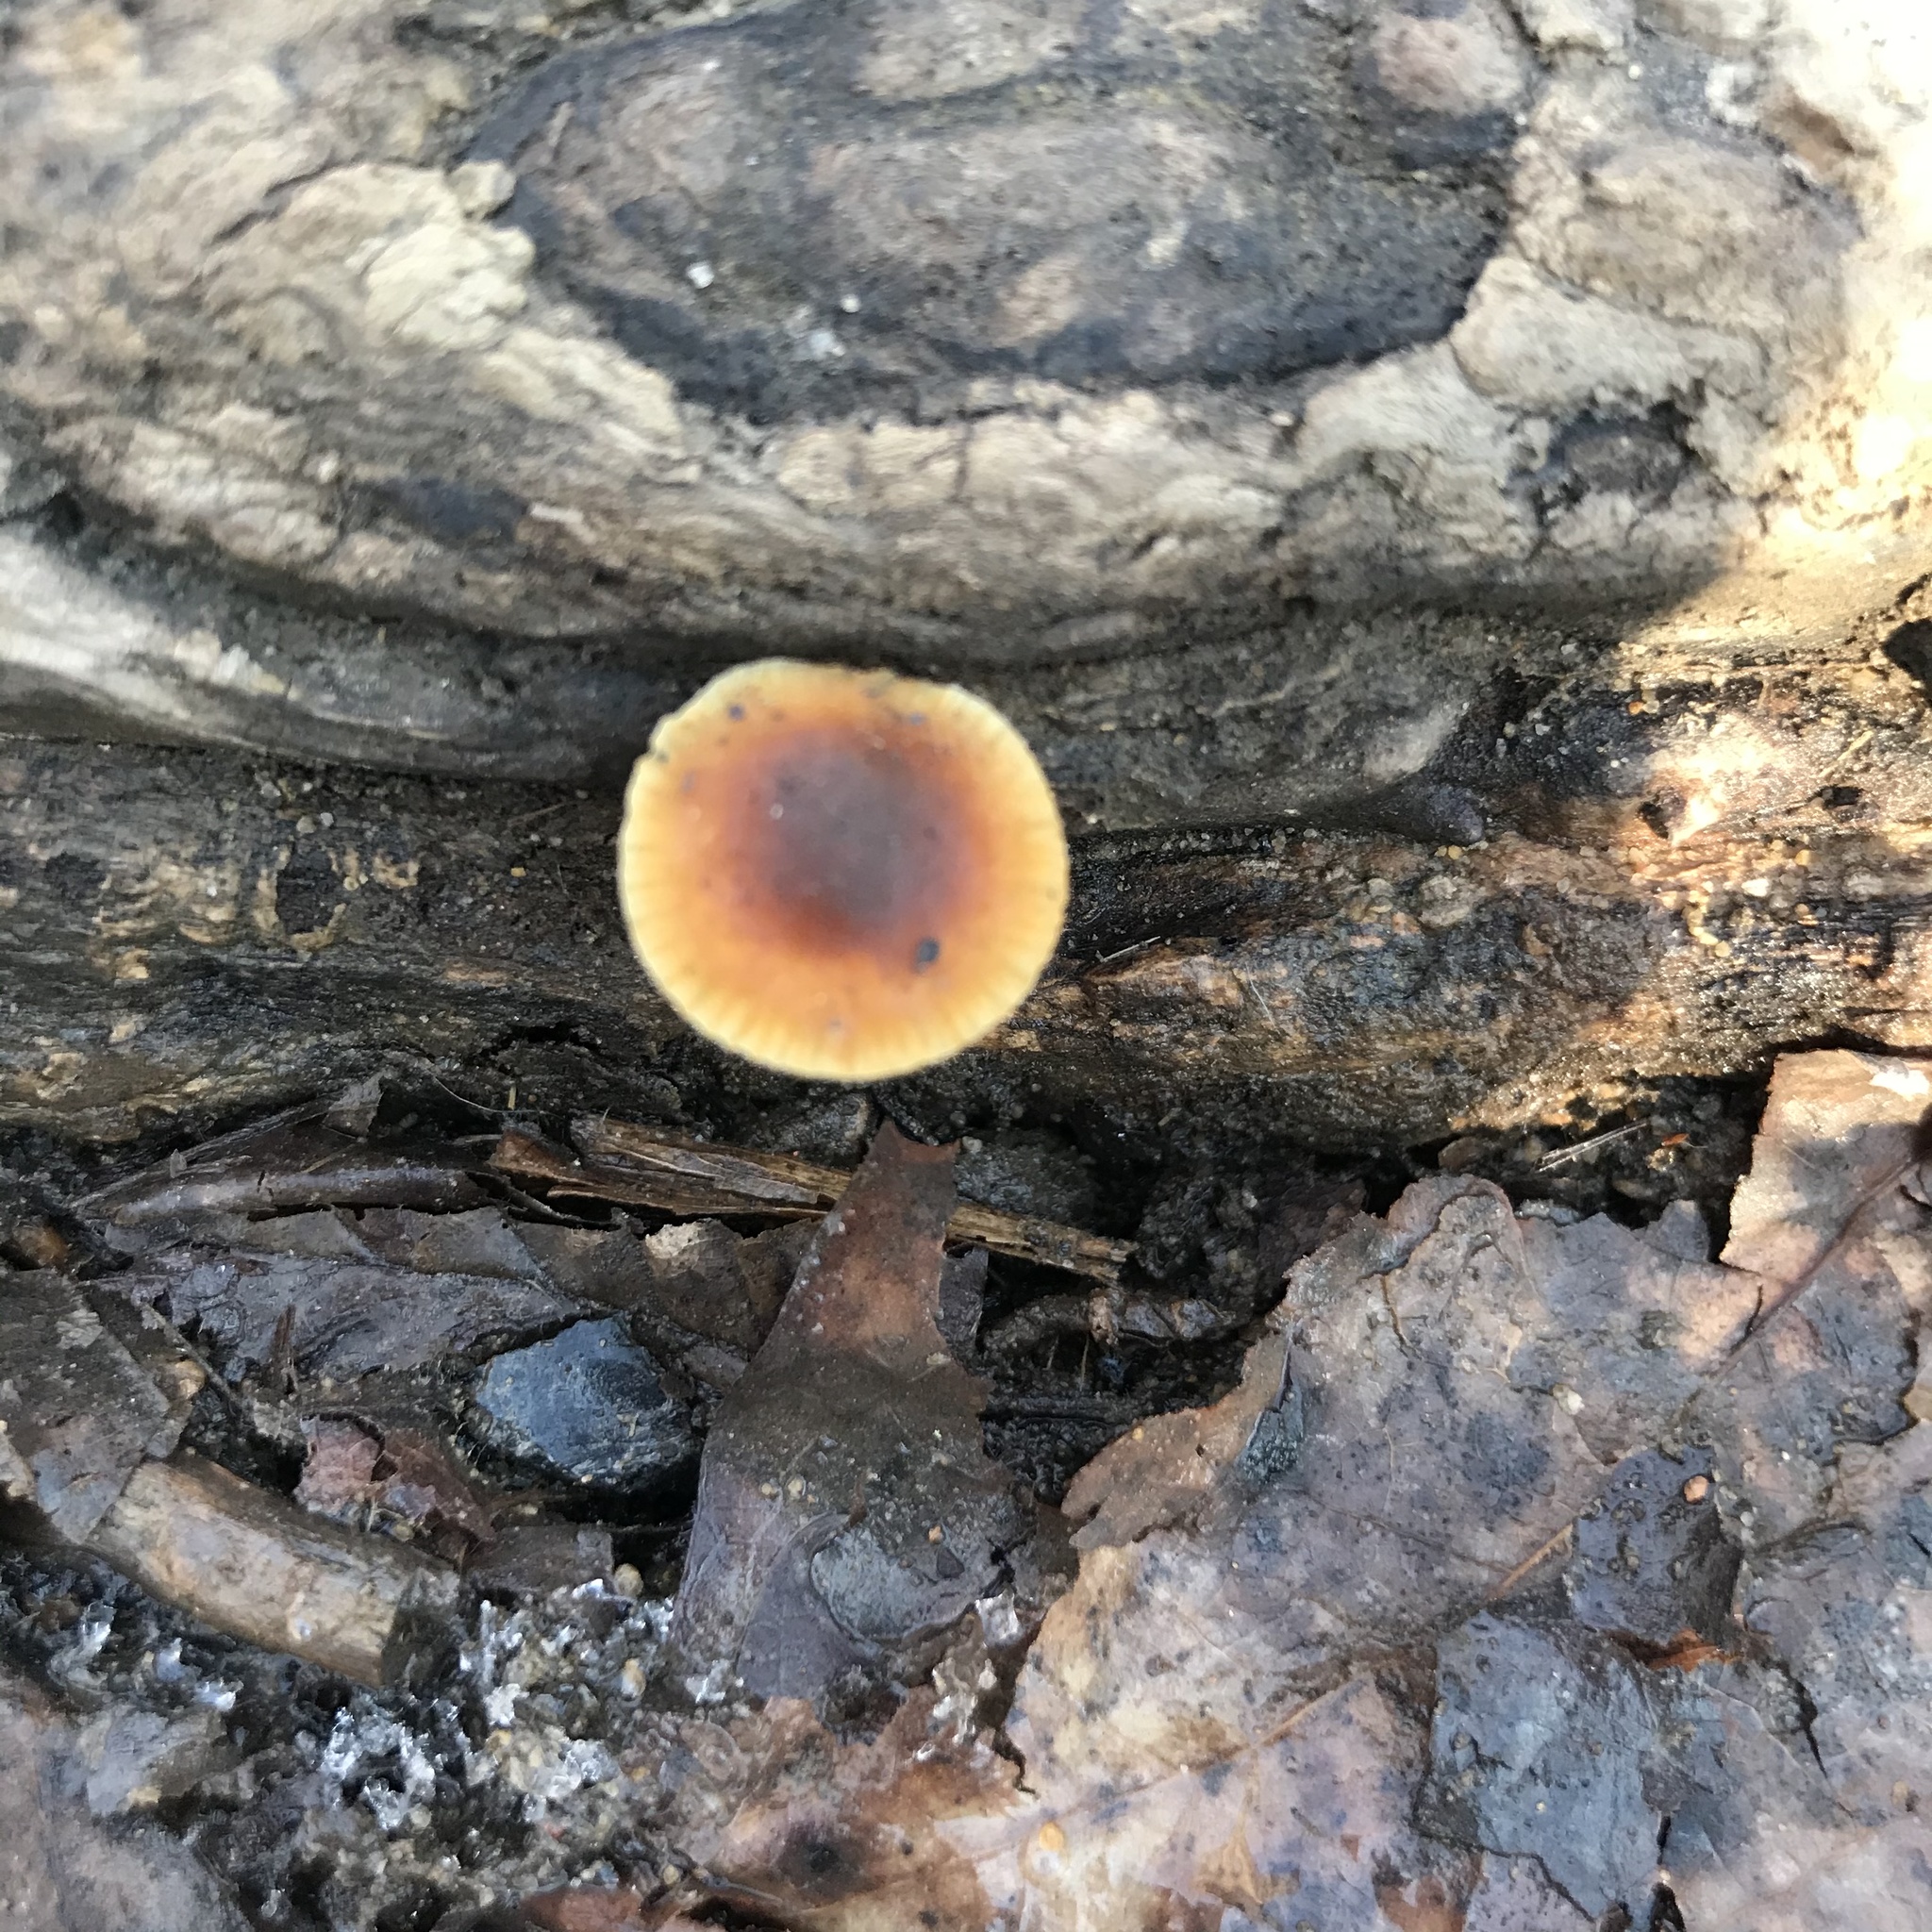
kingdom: Fungi
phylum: Basidiomycota
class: Agaricomycetes
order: Agaricales
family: Tubariaceae
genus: Tubaria
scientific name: Tubaria furfuracea
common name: Scurfy twiglet
